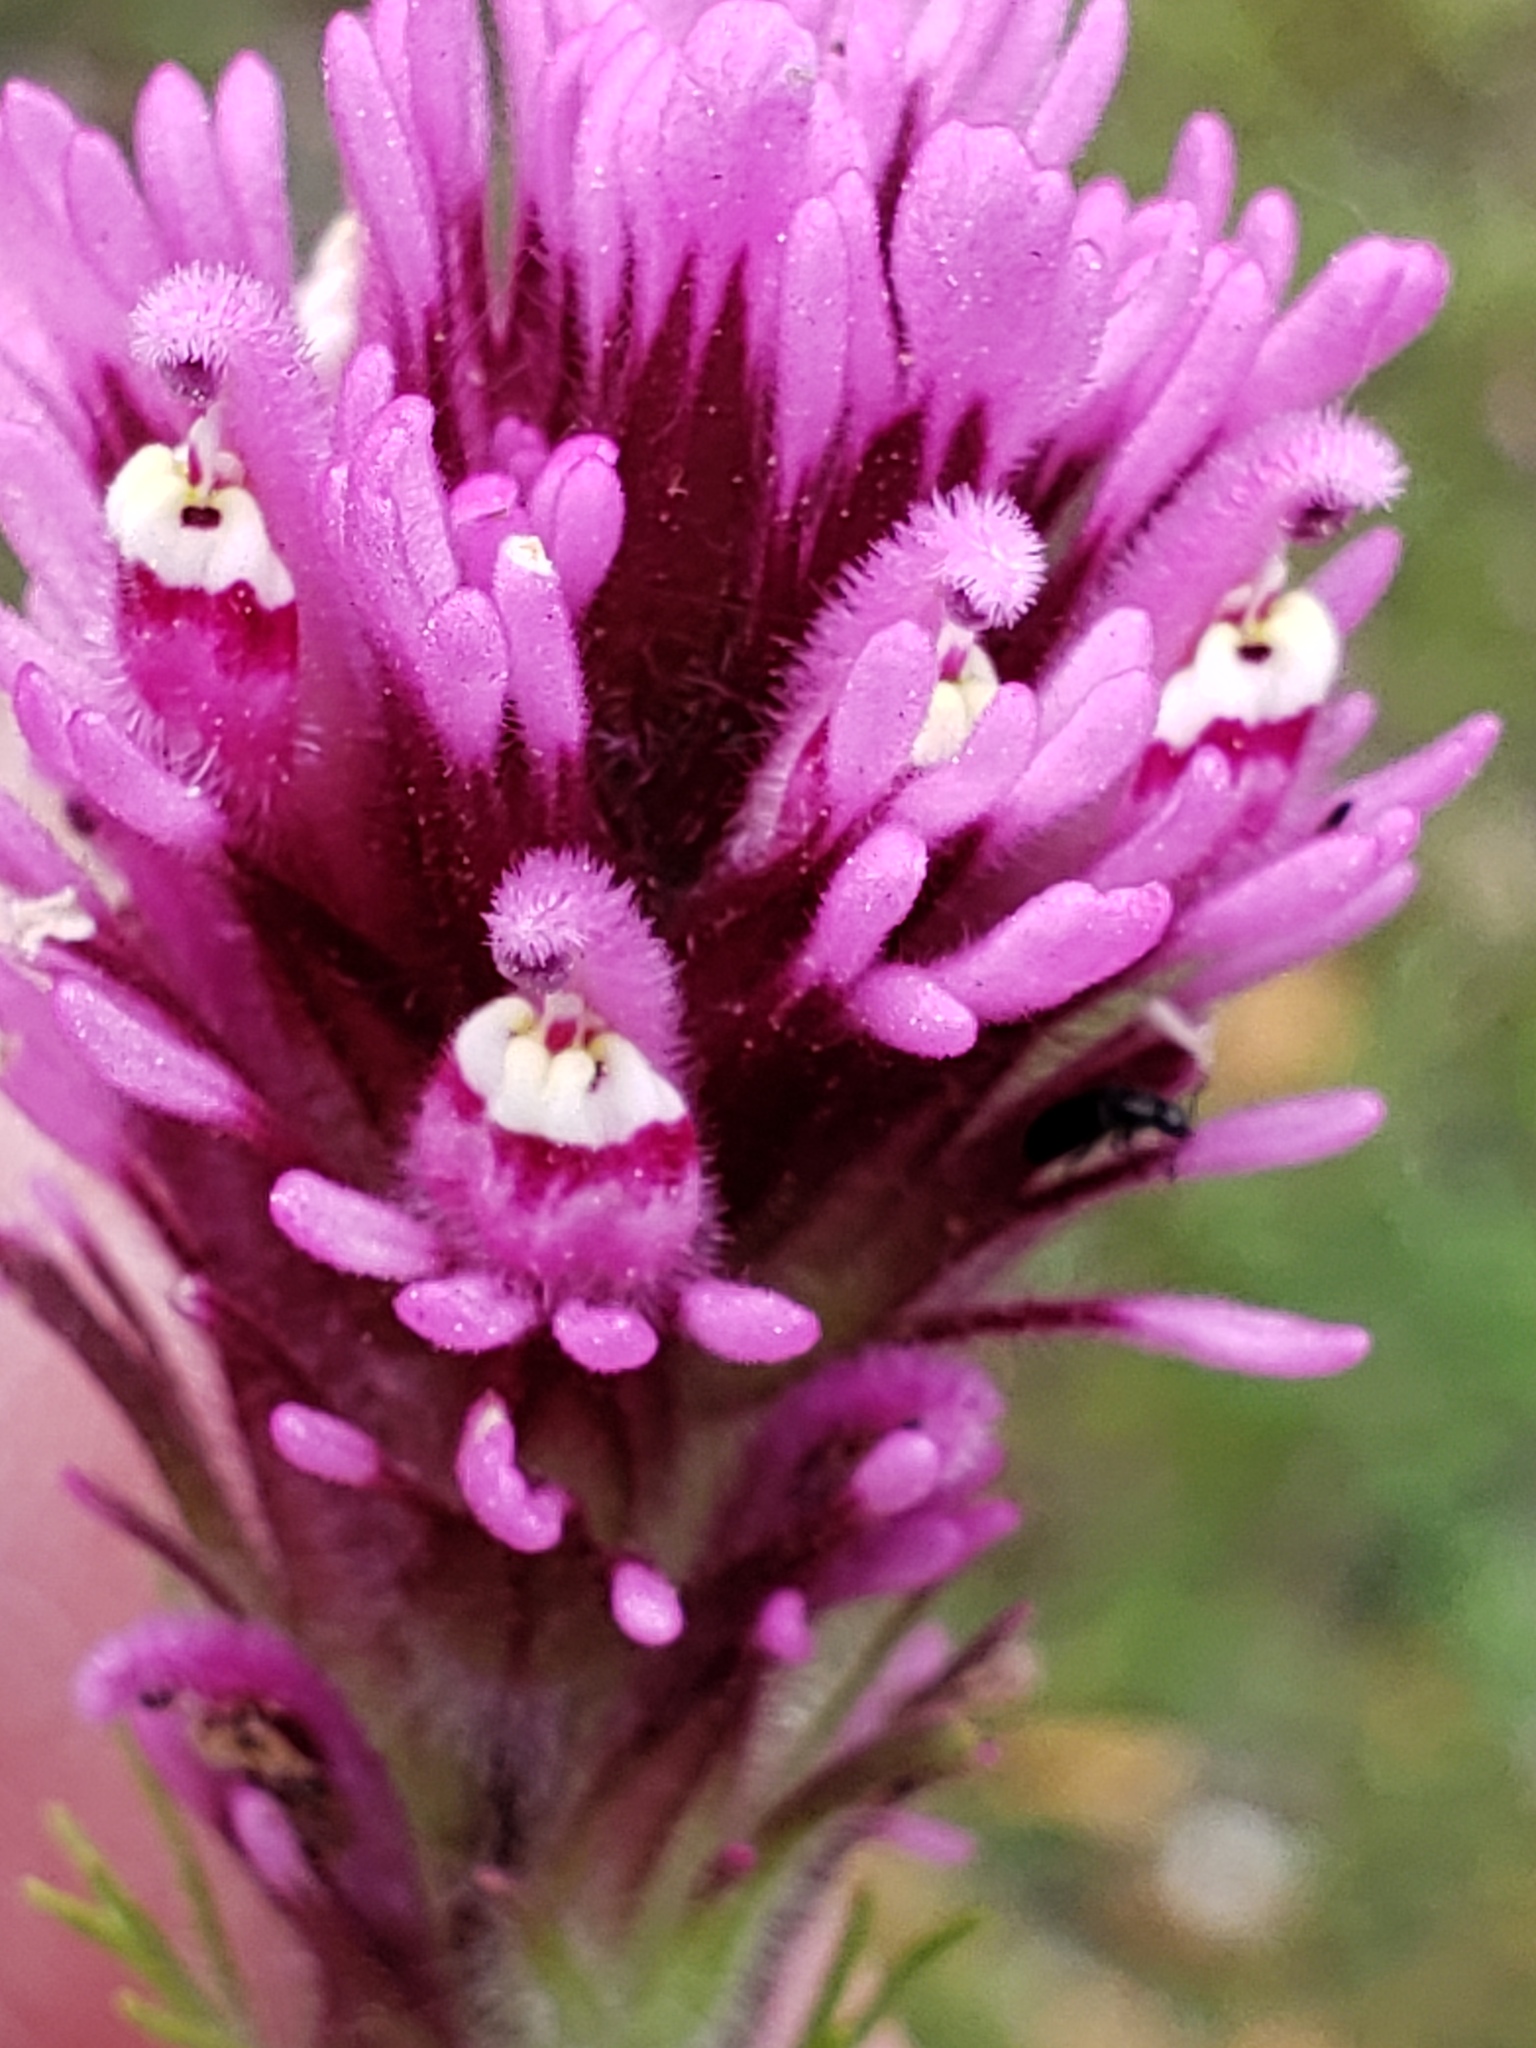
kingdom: Plantae
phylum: Tracheophyta
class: Magnoliopsida
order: Lamiales
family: Orobanchaceae
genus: Castilleja
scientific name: Castilleja exserta
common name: Purple owl-clover
